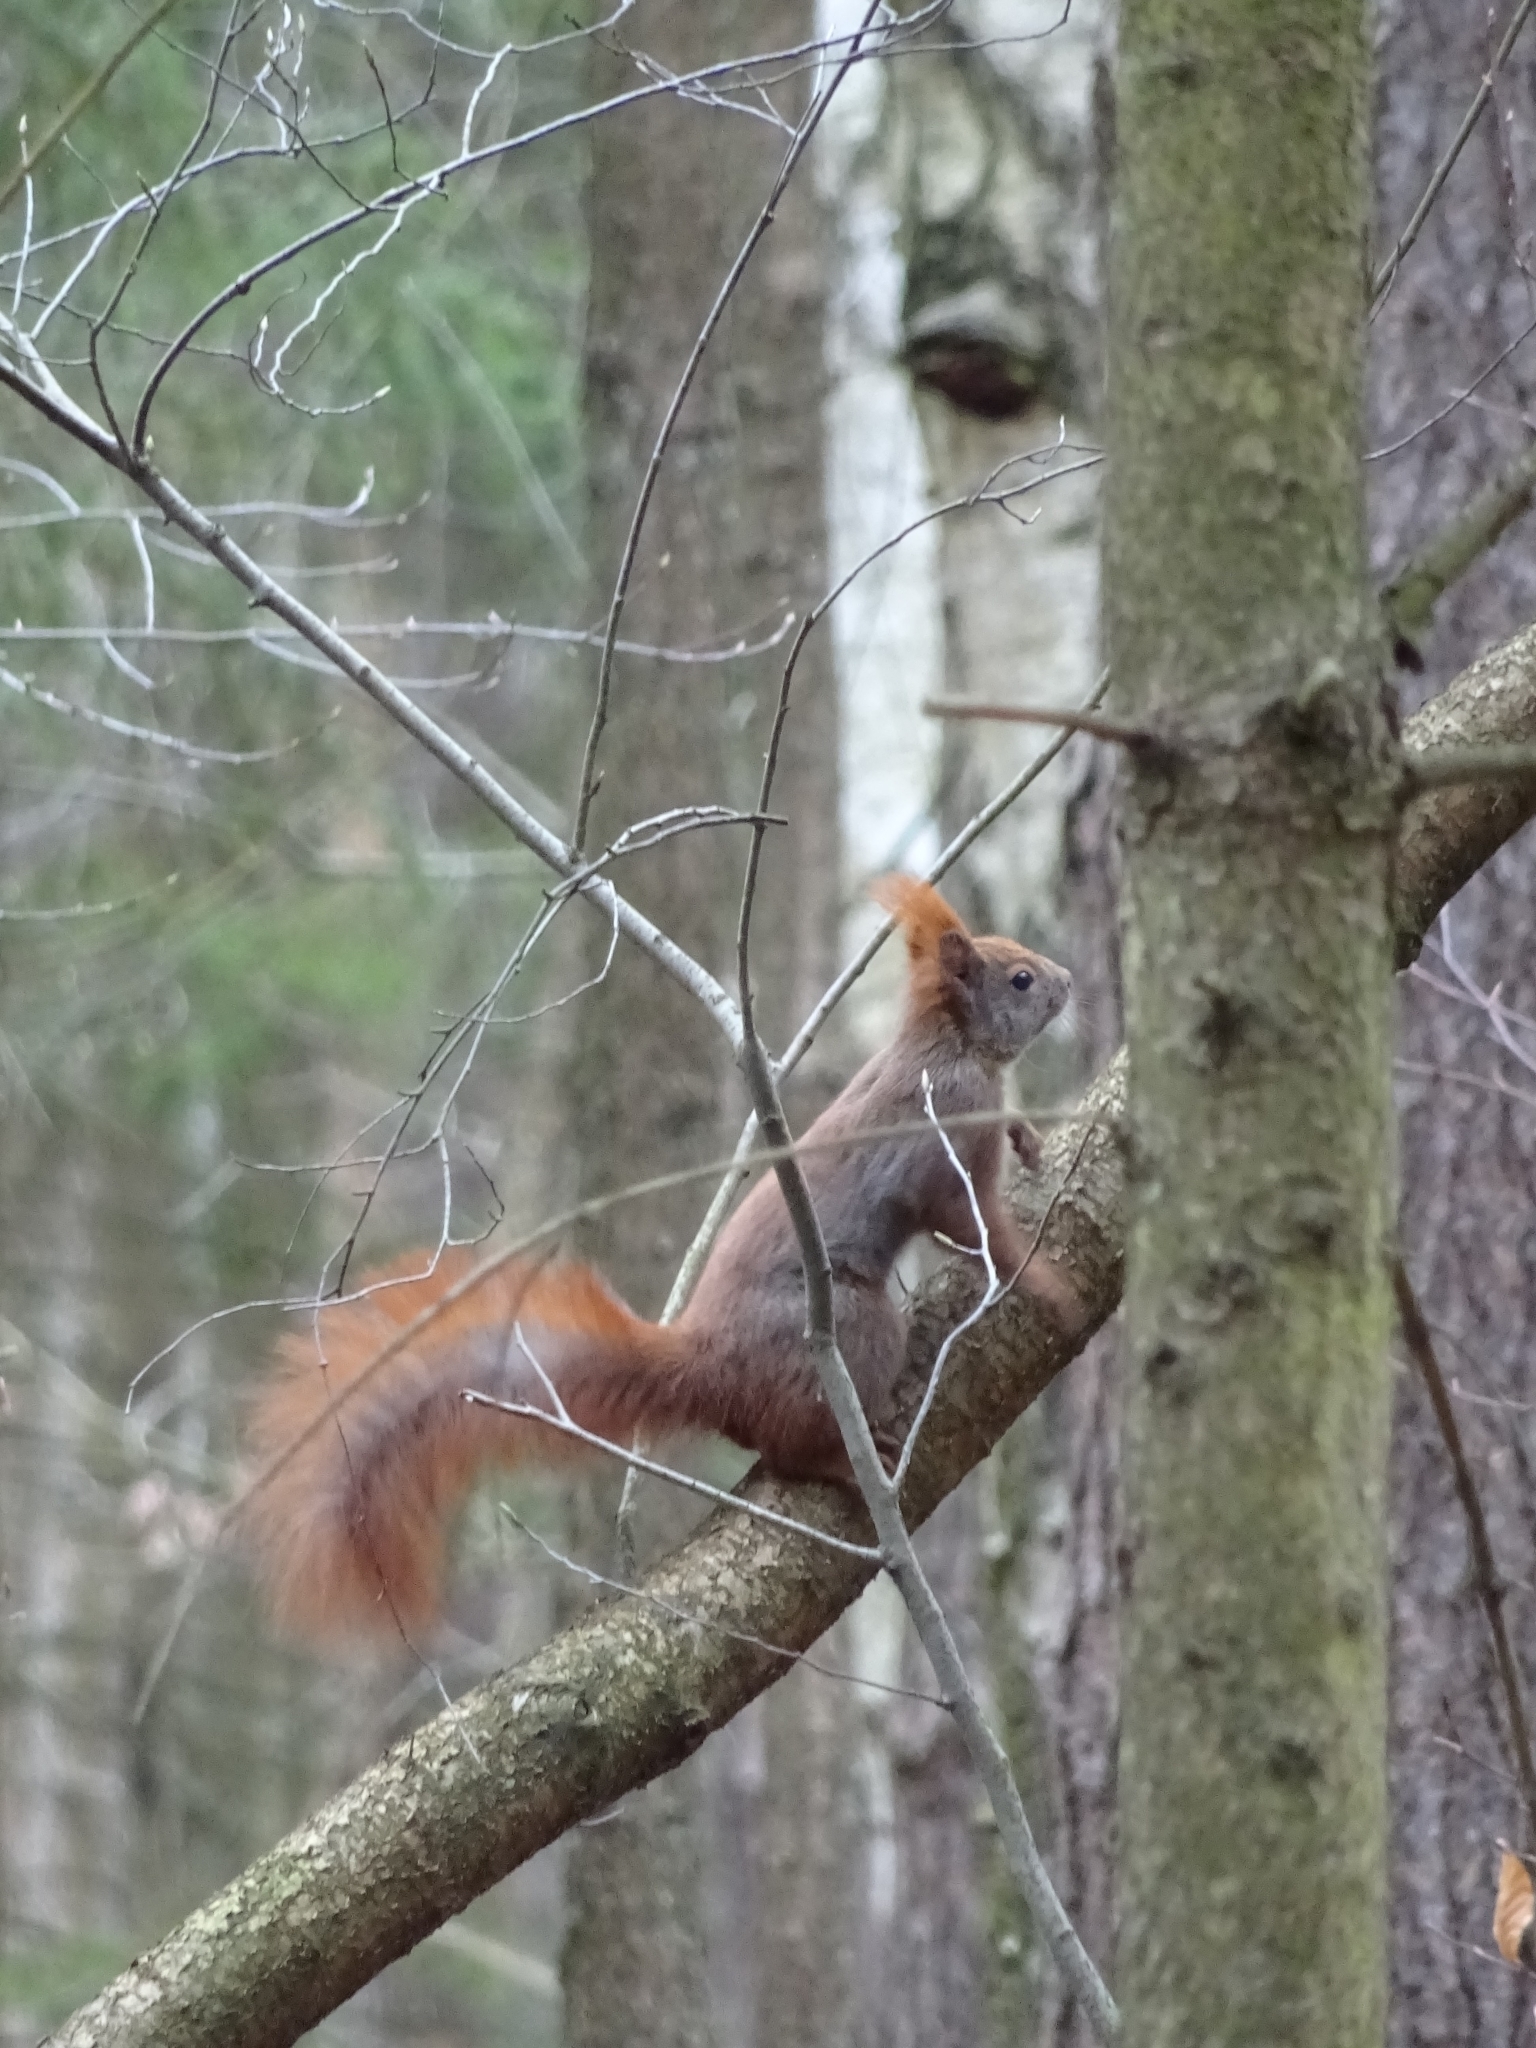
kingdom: Animalia
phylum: Chordata
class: Mammalia
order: Rodentia
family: Sciuridae
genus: Sciurus
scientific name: Sciurus vulgaris
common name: Eurasian red squirrel
